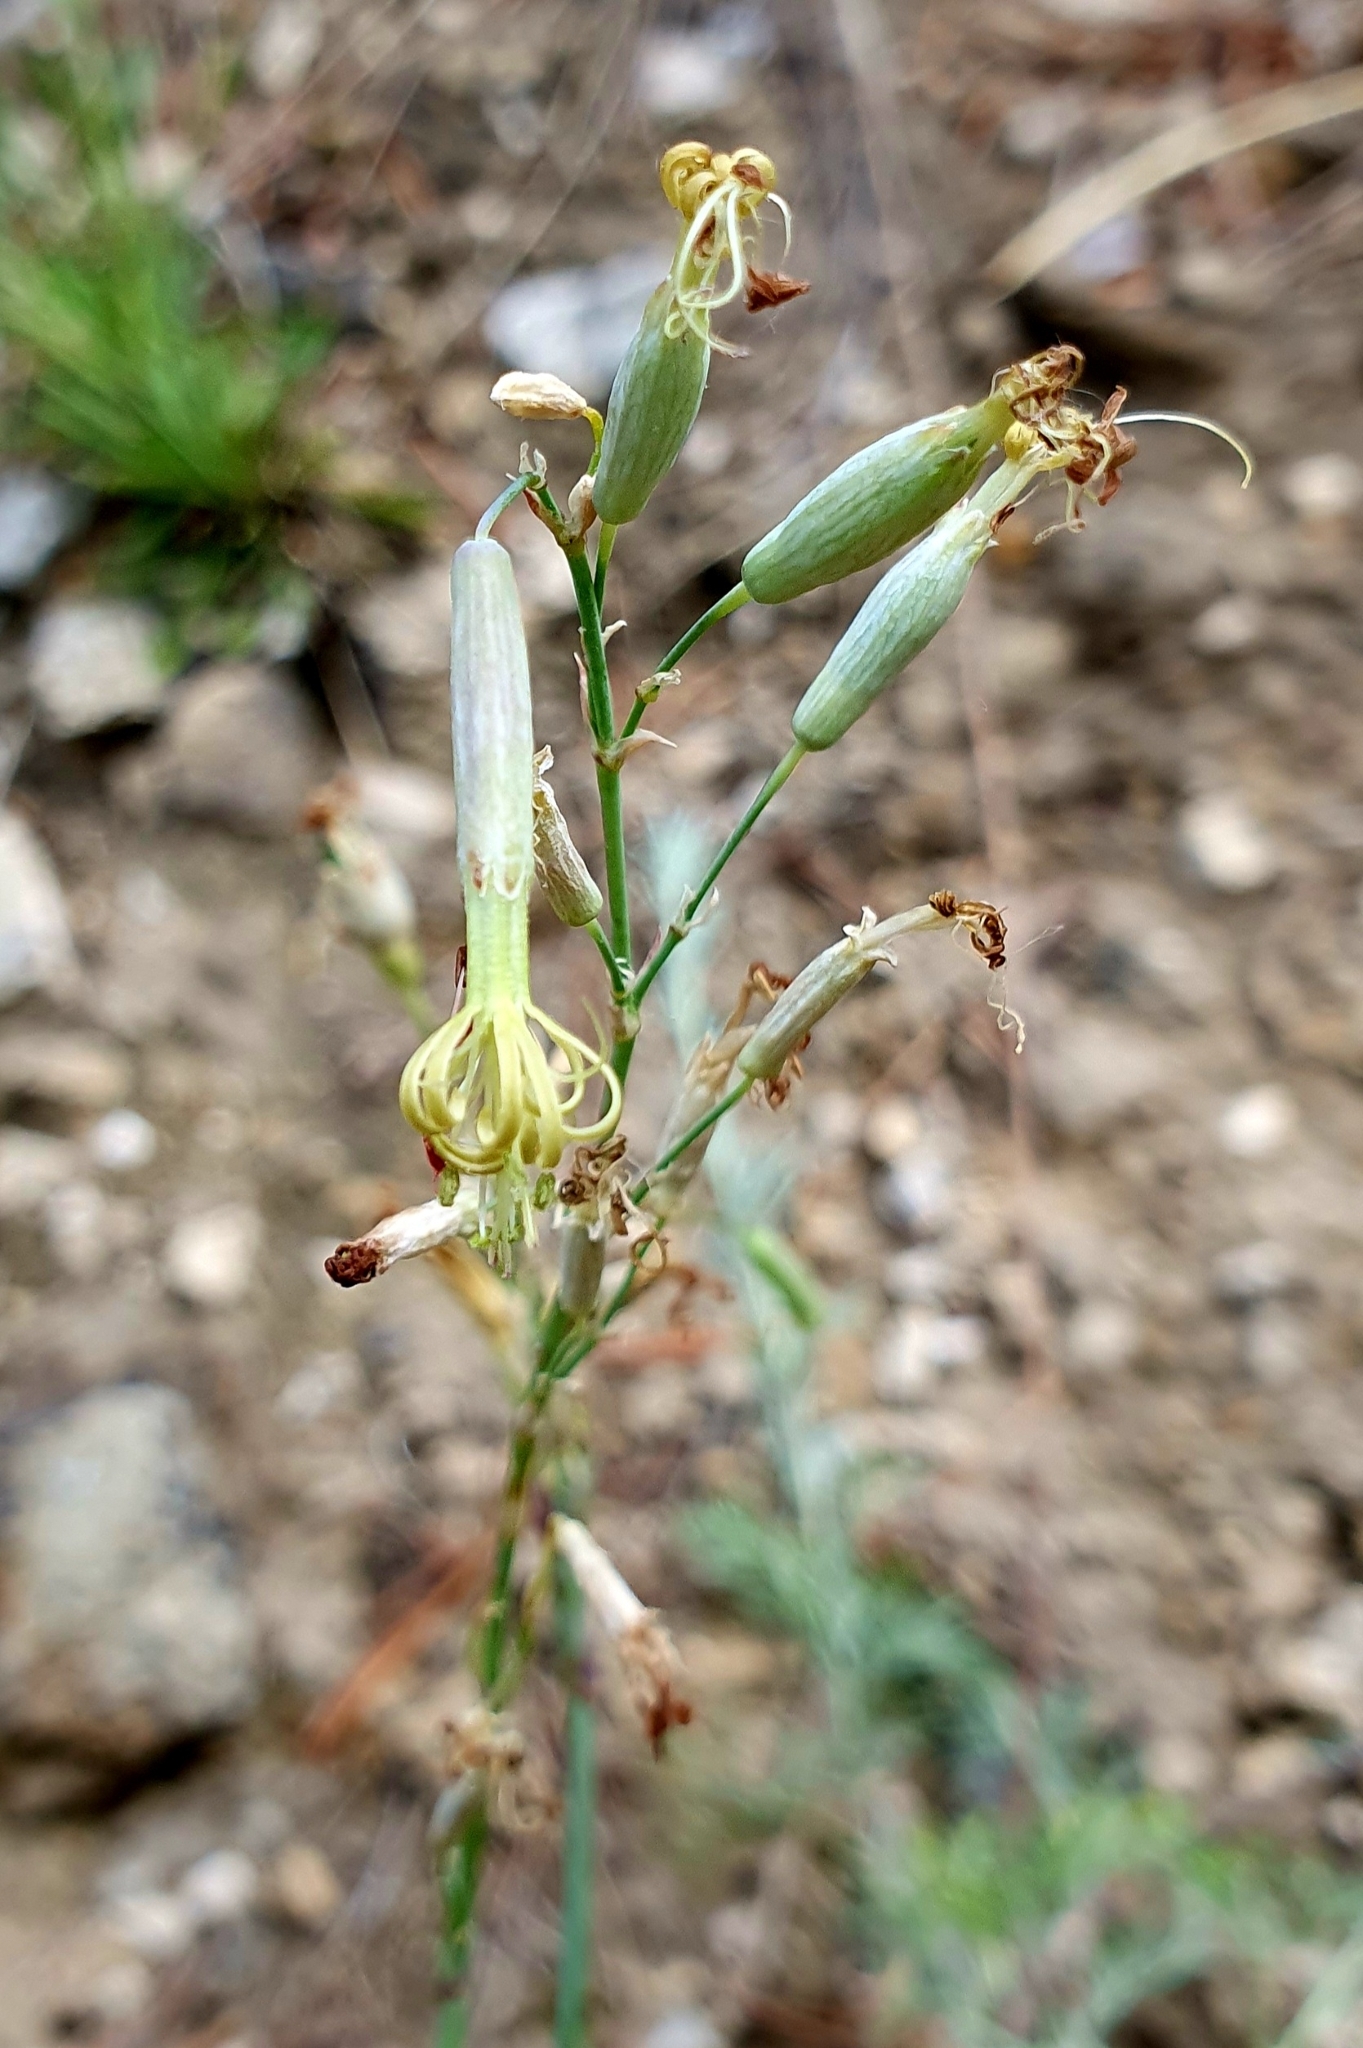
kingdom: Plantae
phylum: Tracheophyta
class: Magnoliopsida
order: Caryophyllales
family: Caryophyllaceae
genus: Silene
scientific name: Silene chlorantha
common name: Yellowgreen catchfly
